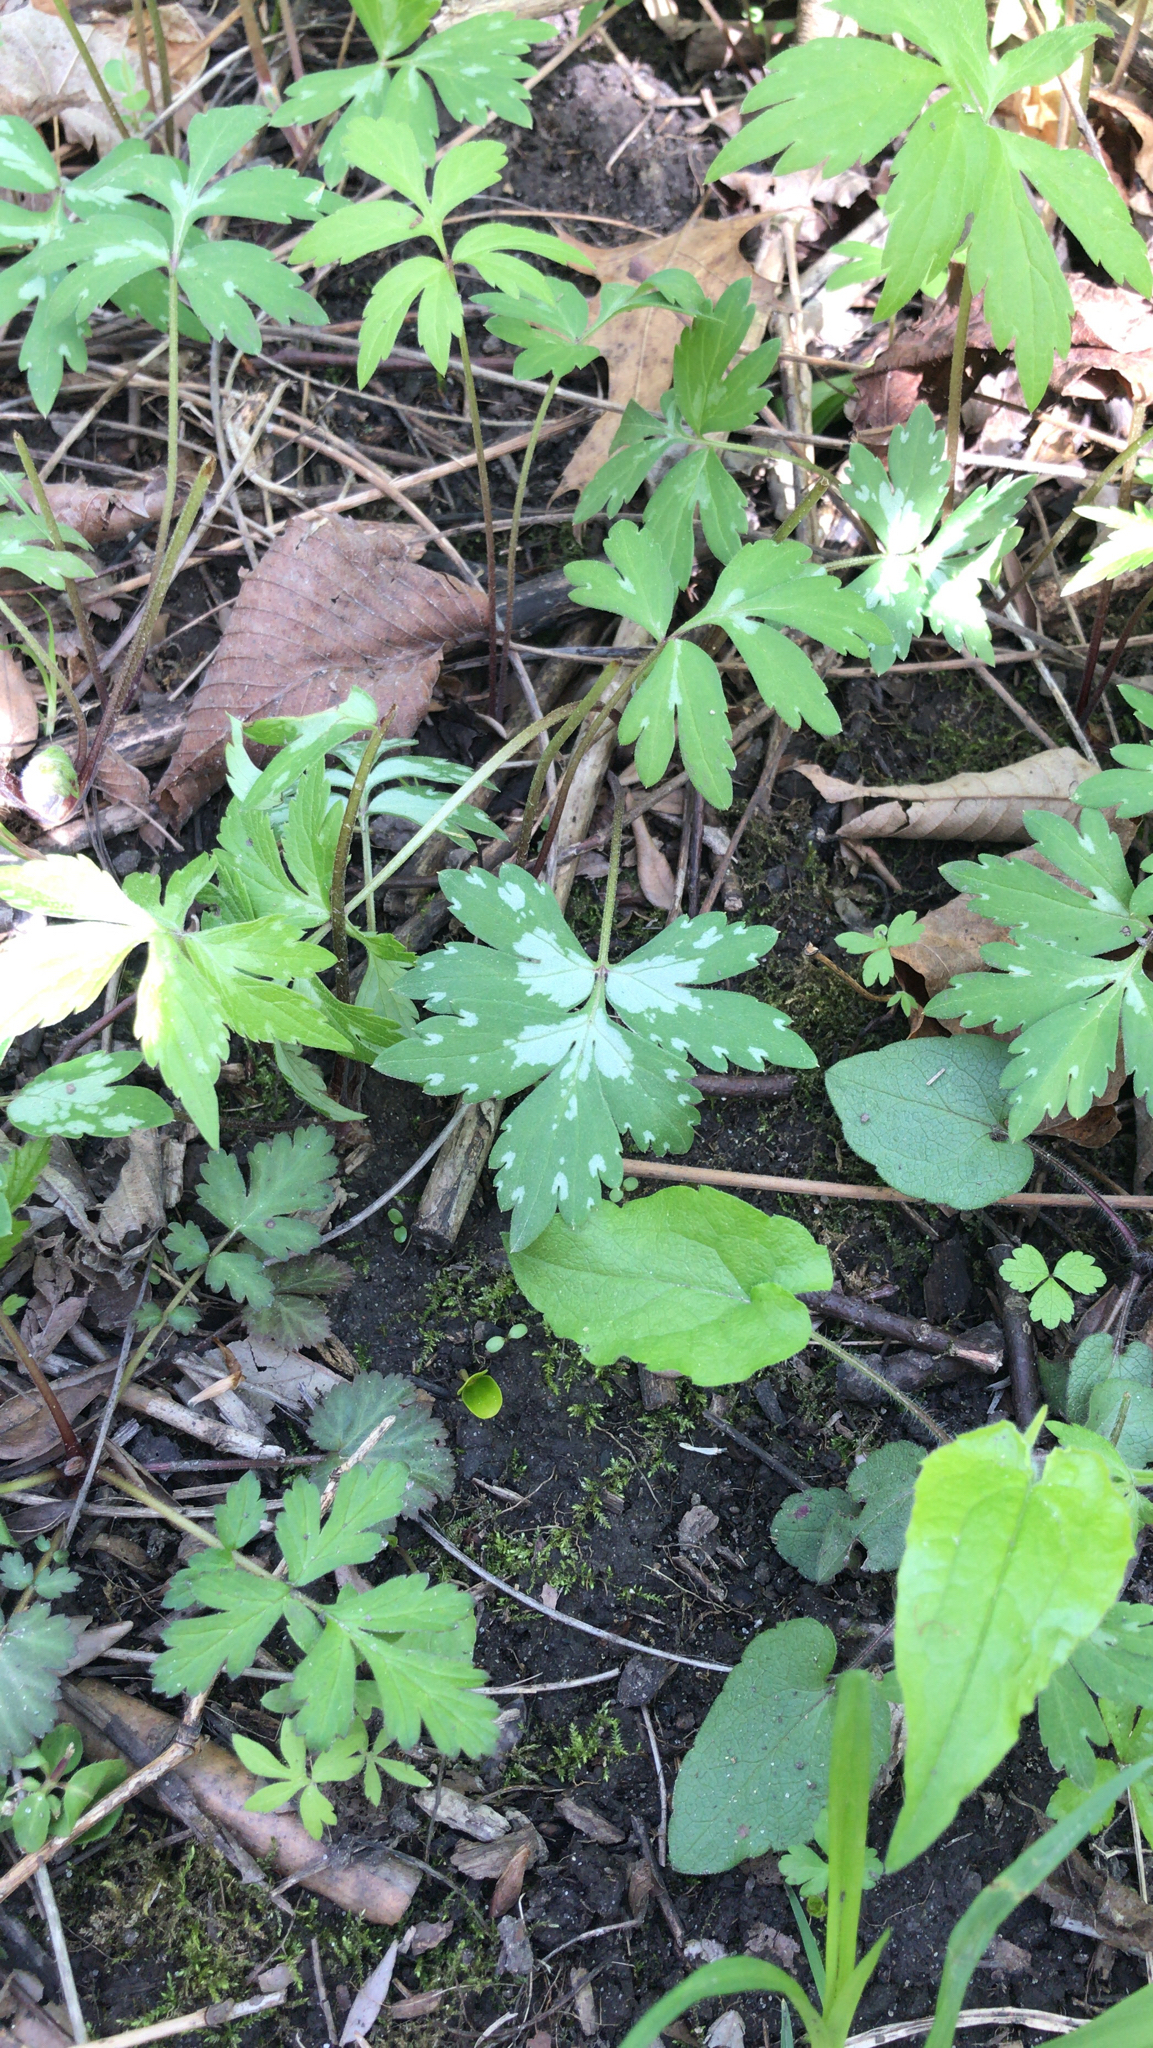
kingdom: Plantae
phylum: Tracheophyta
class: Magnoliopsida
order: Boraginales
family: Hydrophyllaceae
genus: Hydrophyllum
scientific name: Hydrophyllum virginianum
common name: Virginia waterleaf
